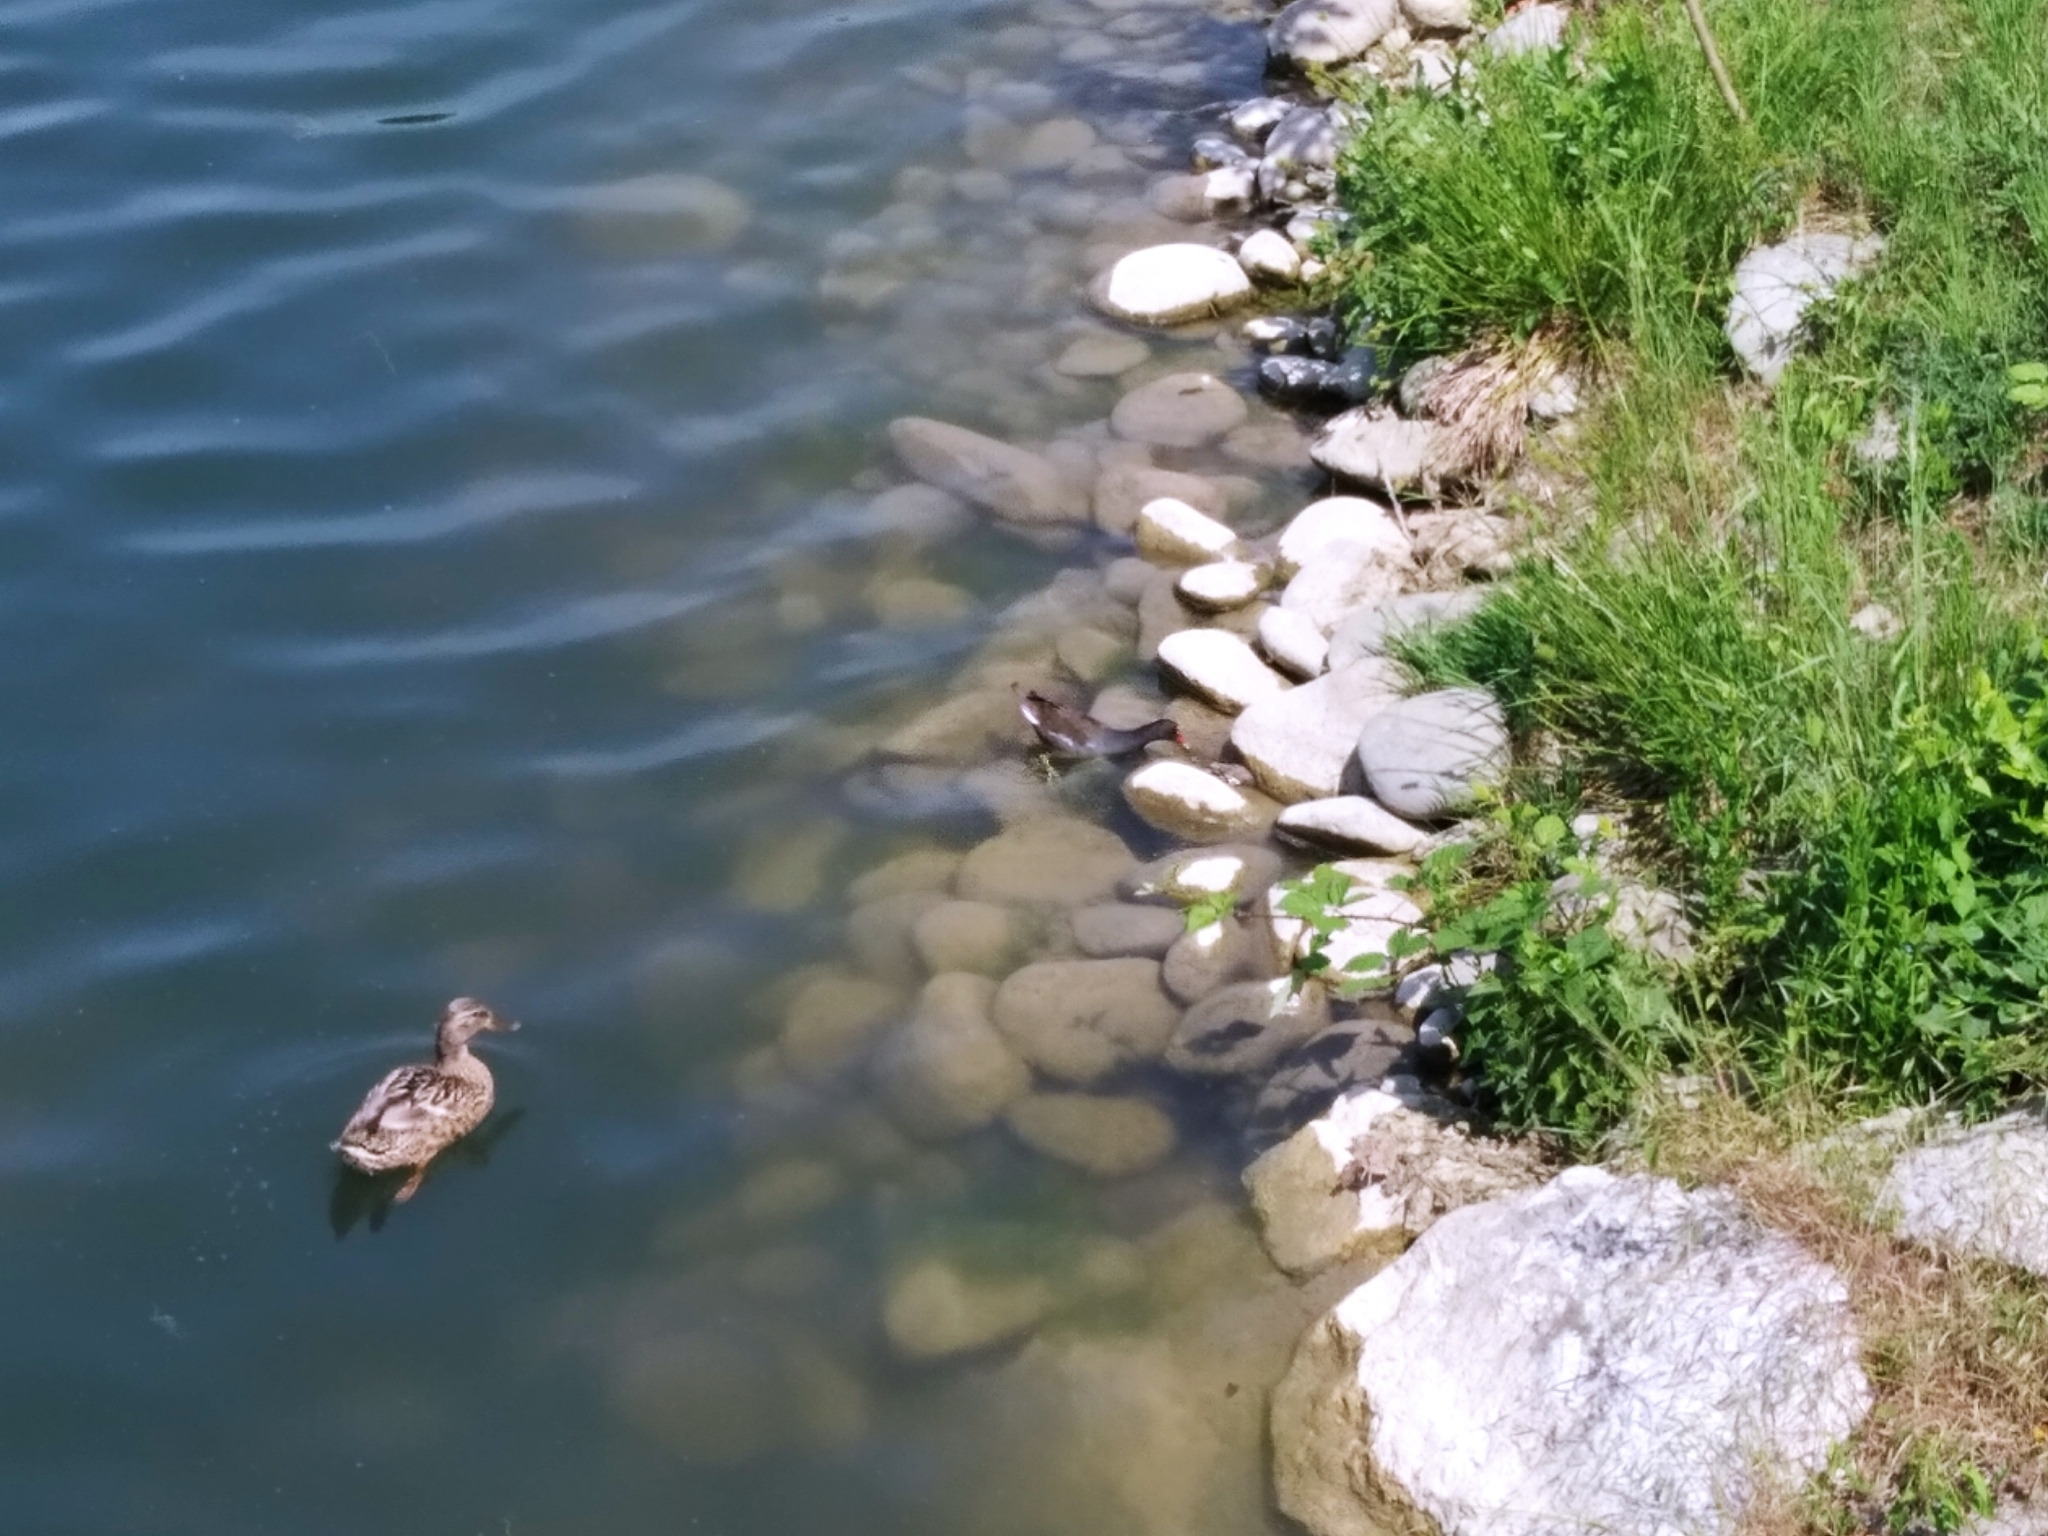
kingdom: Animalia
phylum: Chordata
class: Aves
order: Gruiformes
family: Rallidae
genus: Gallinula
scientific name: Gallinula chloropus
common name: Common moorhen
